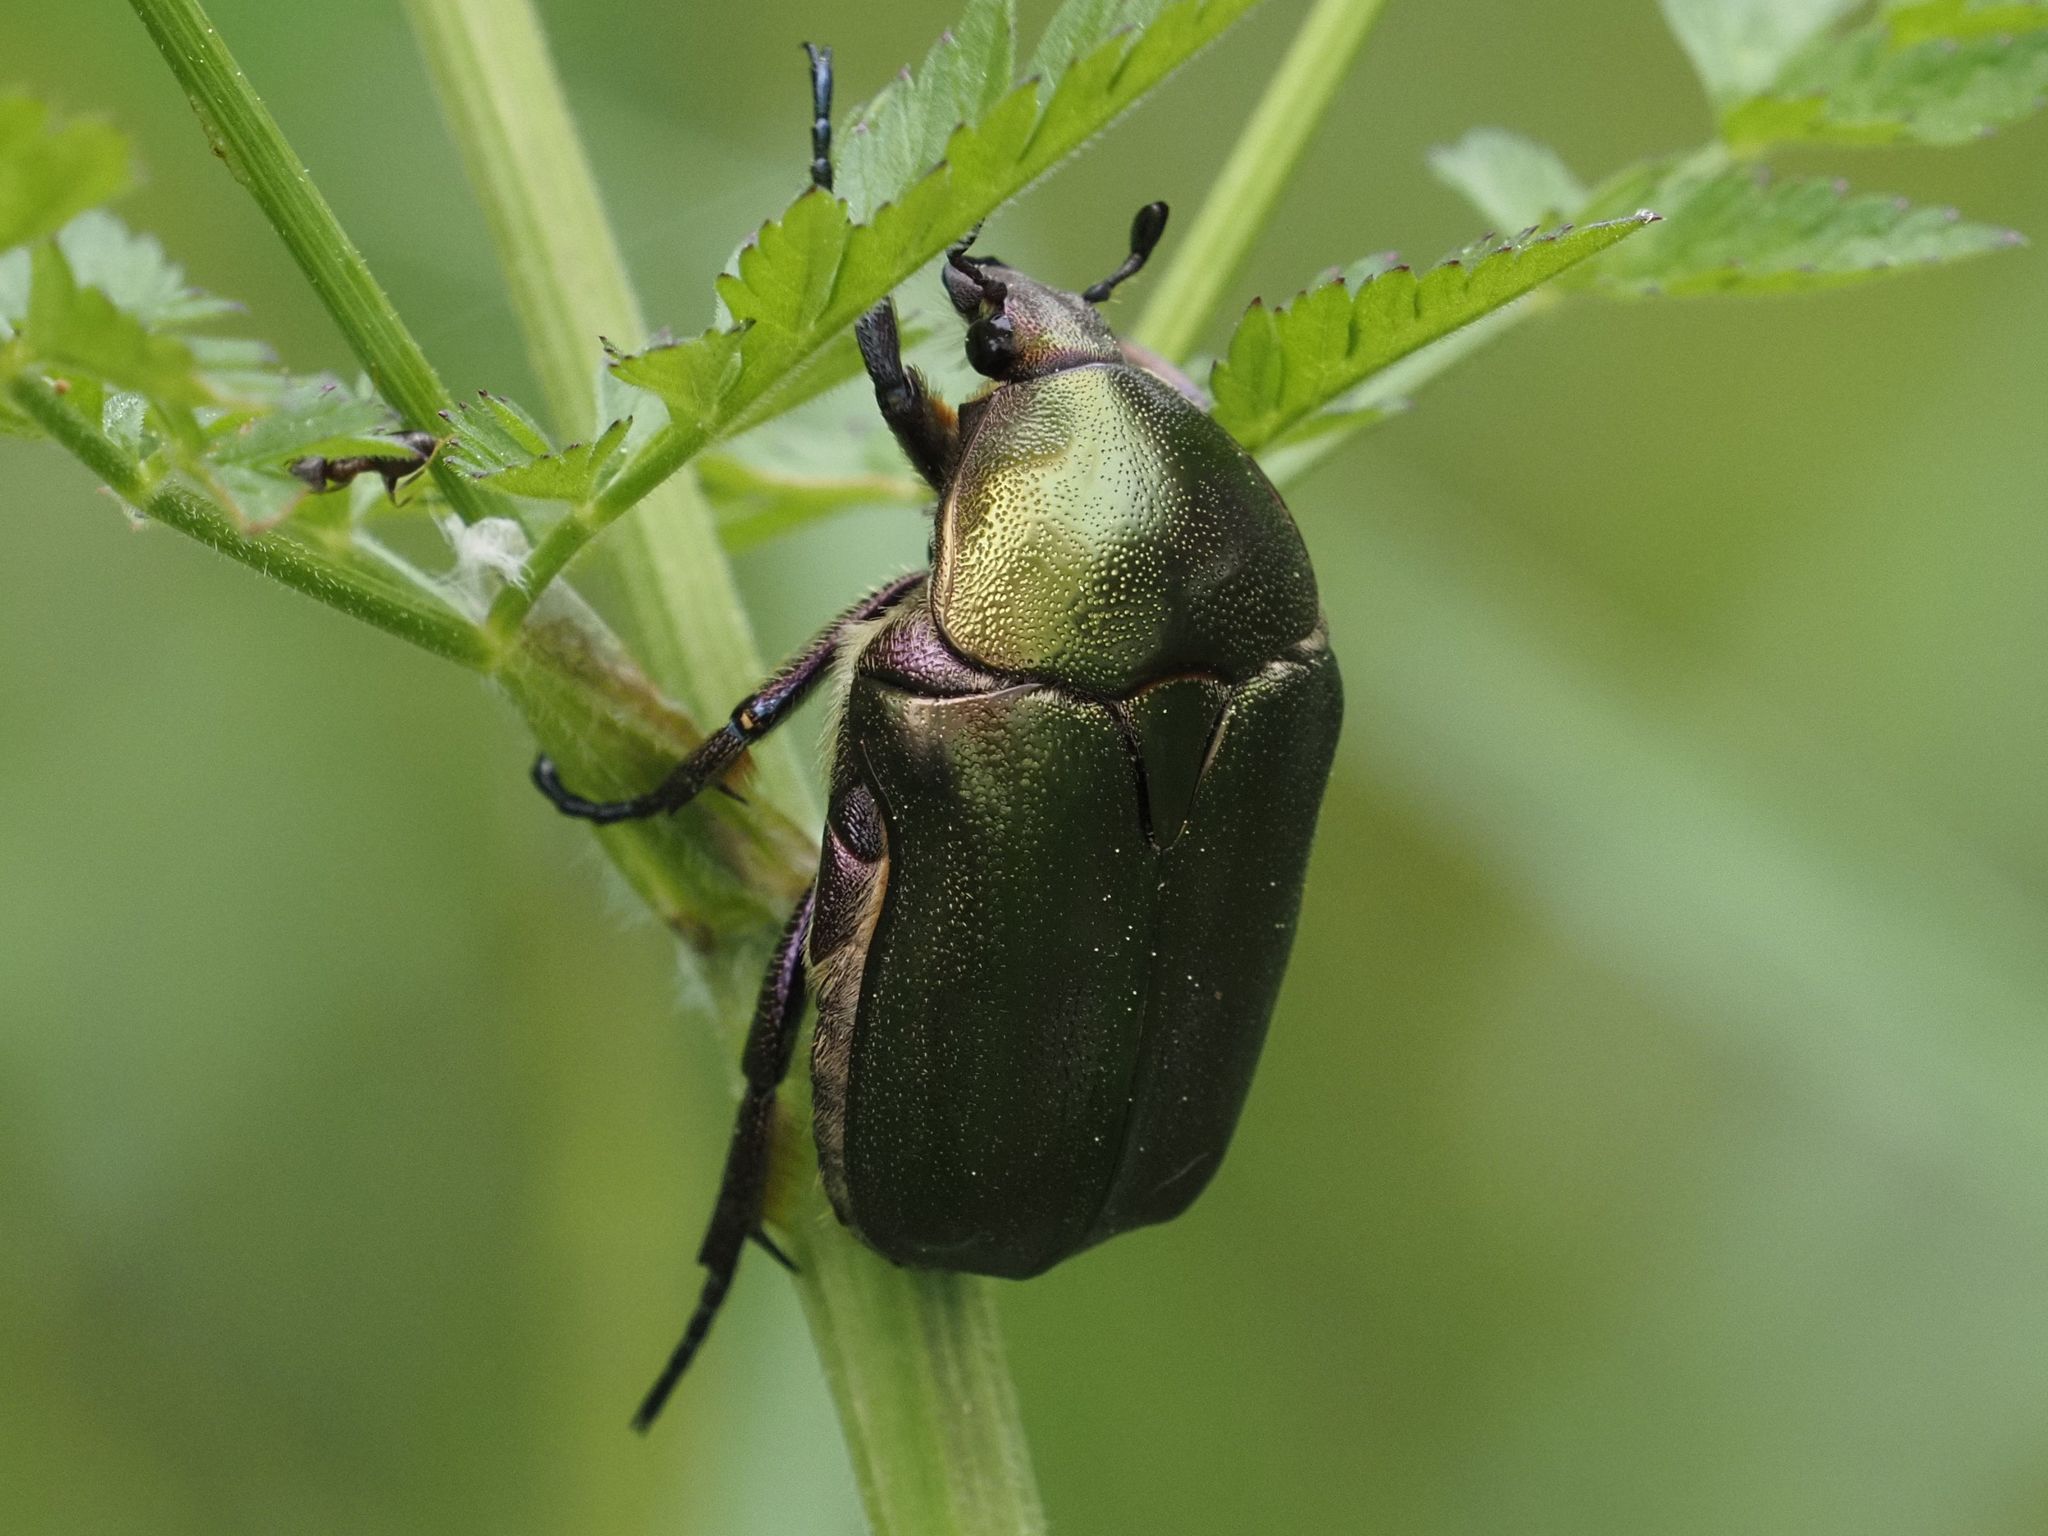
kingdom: Animalia
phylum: Arthropoda
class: Insecta
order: Coleoptera
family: Scarabaeidae
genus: Protaetia
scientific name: Protaetia cuprea
